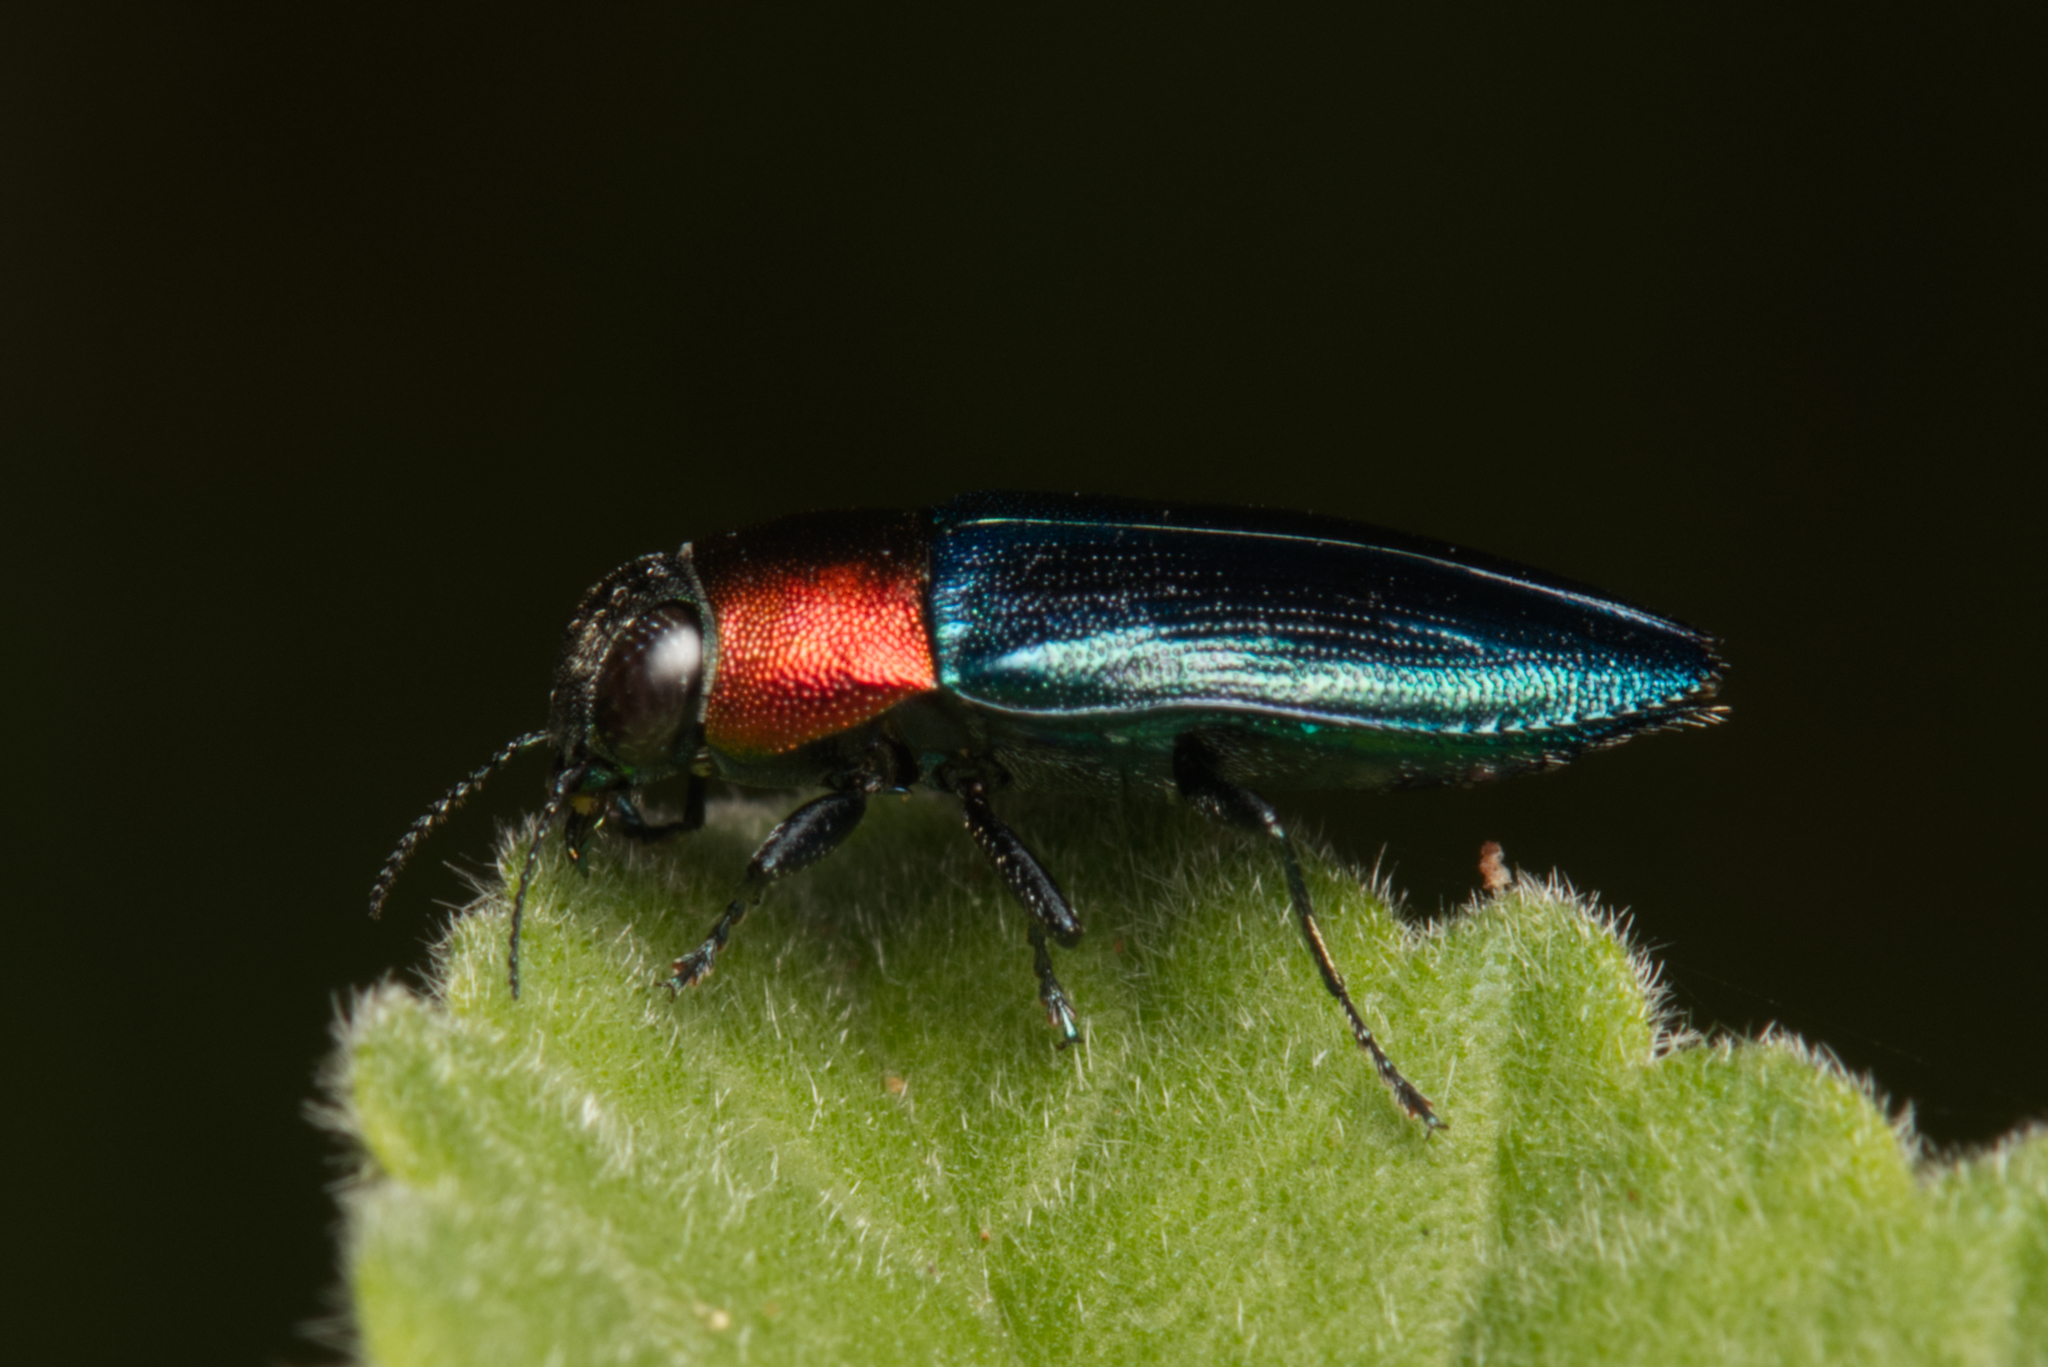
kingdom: Animalia
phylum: Arthropoda
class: Insecta
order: Coleoptera
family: Buprestidae
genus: Melobasis
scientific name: Melobasis cyaneipennis
